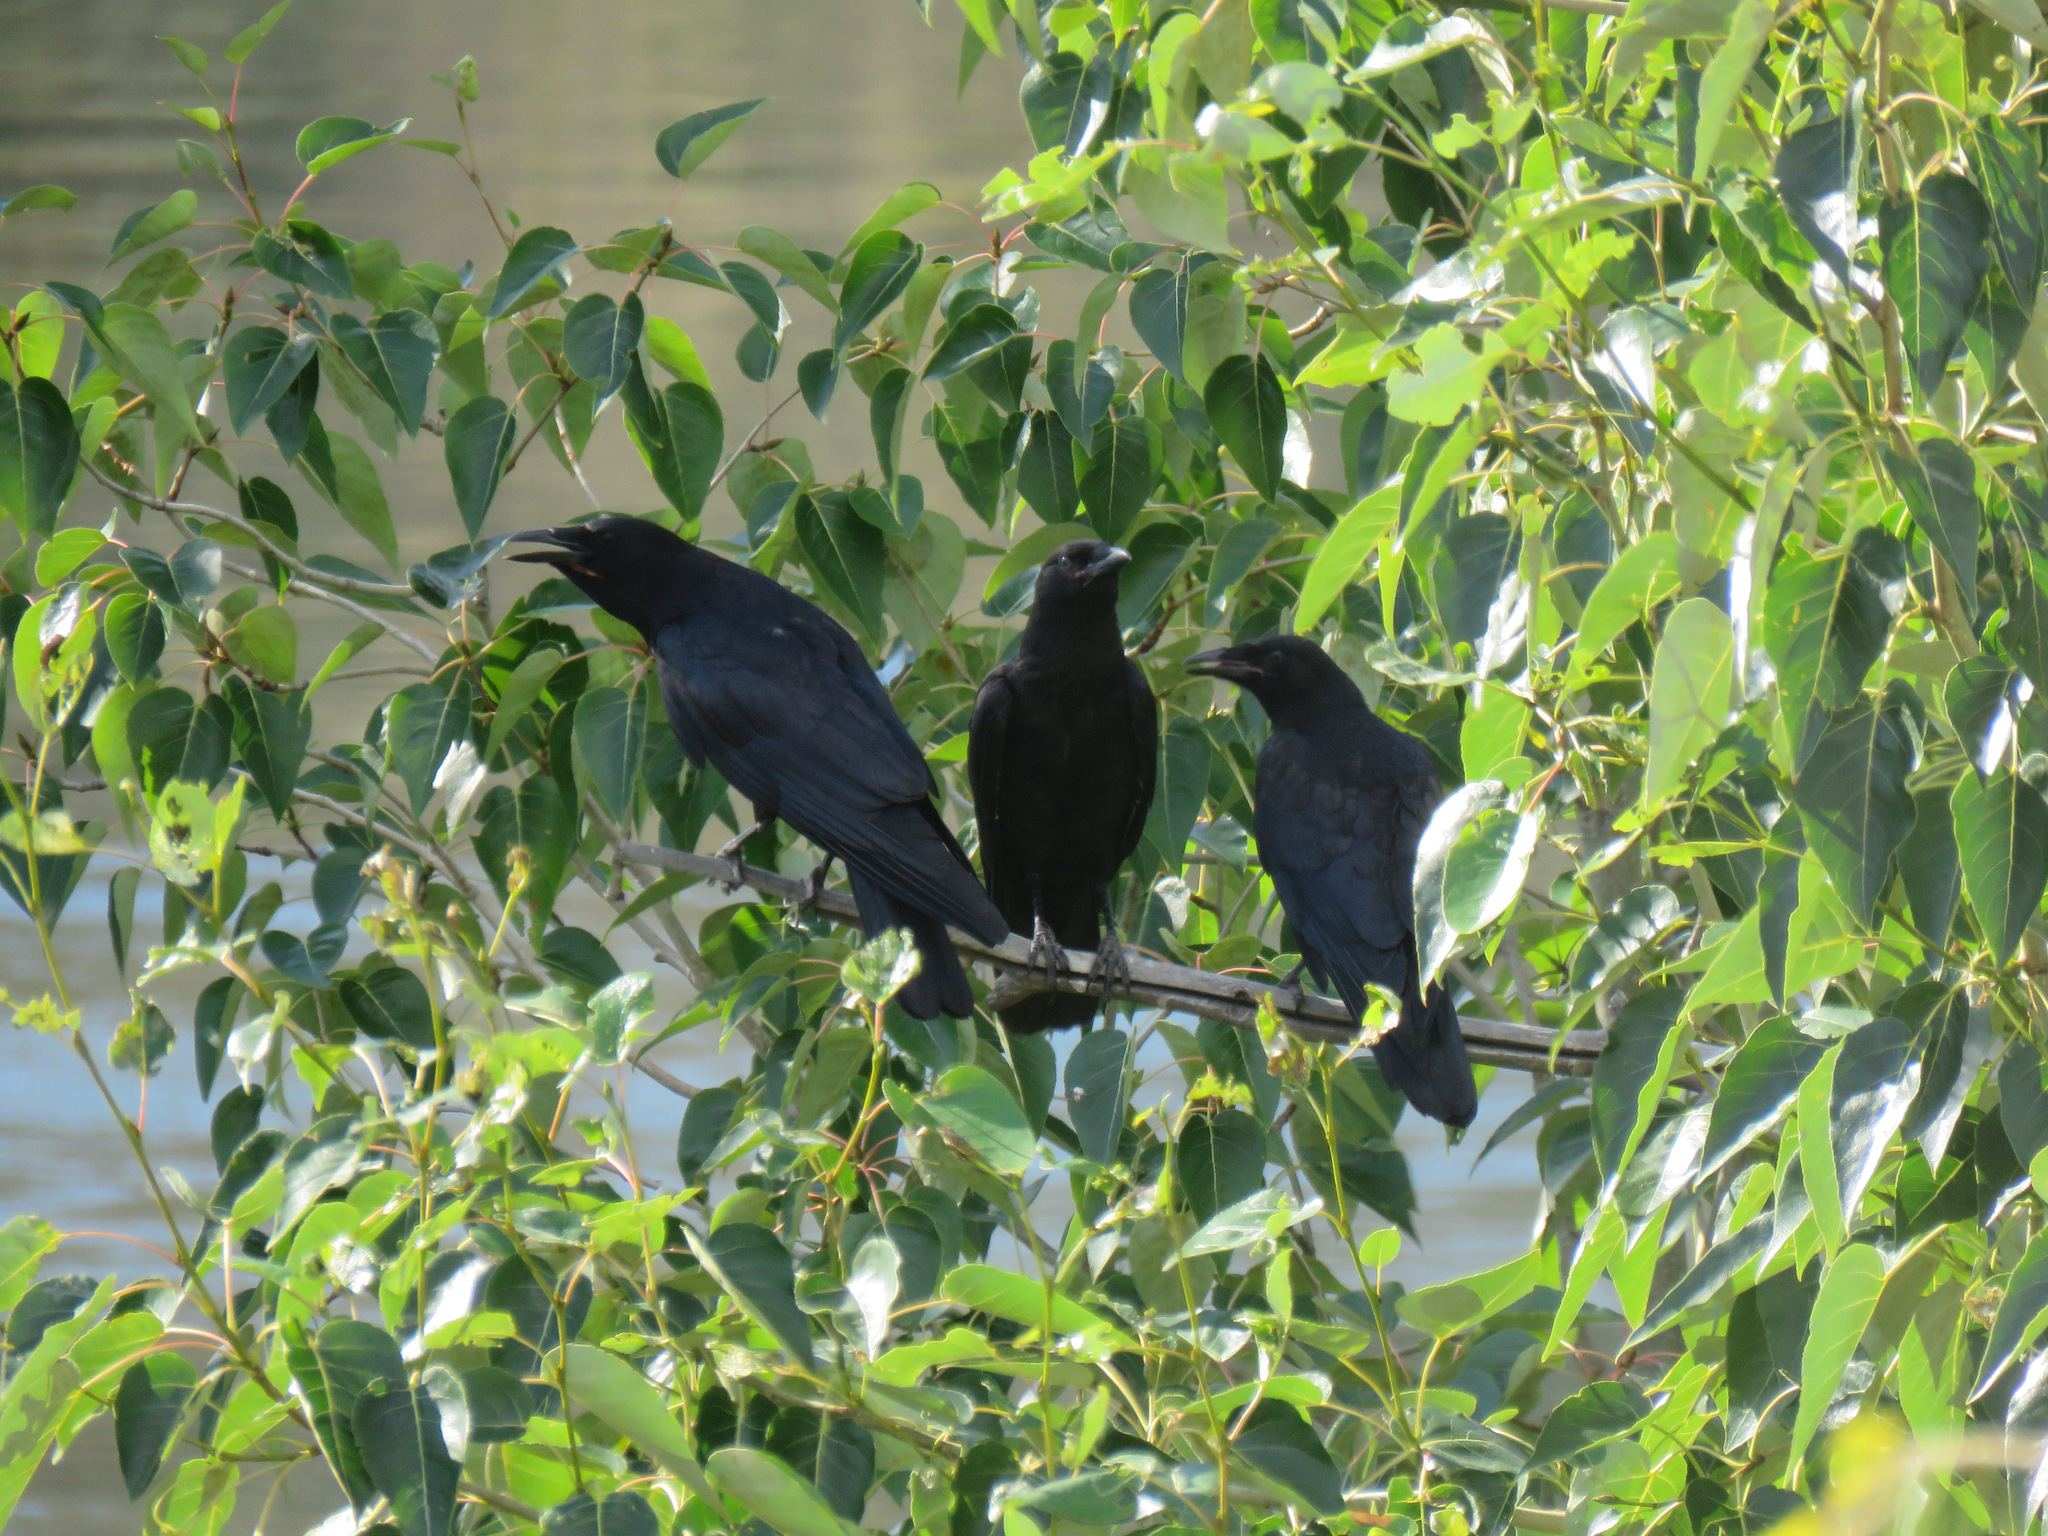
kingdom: Animalia
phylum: Chordata
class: Aves
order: Passeriformes
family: Corvidae
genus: Corvus
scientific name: Corvus brachyrhynchos
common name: American crow
